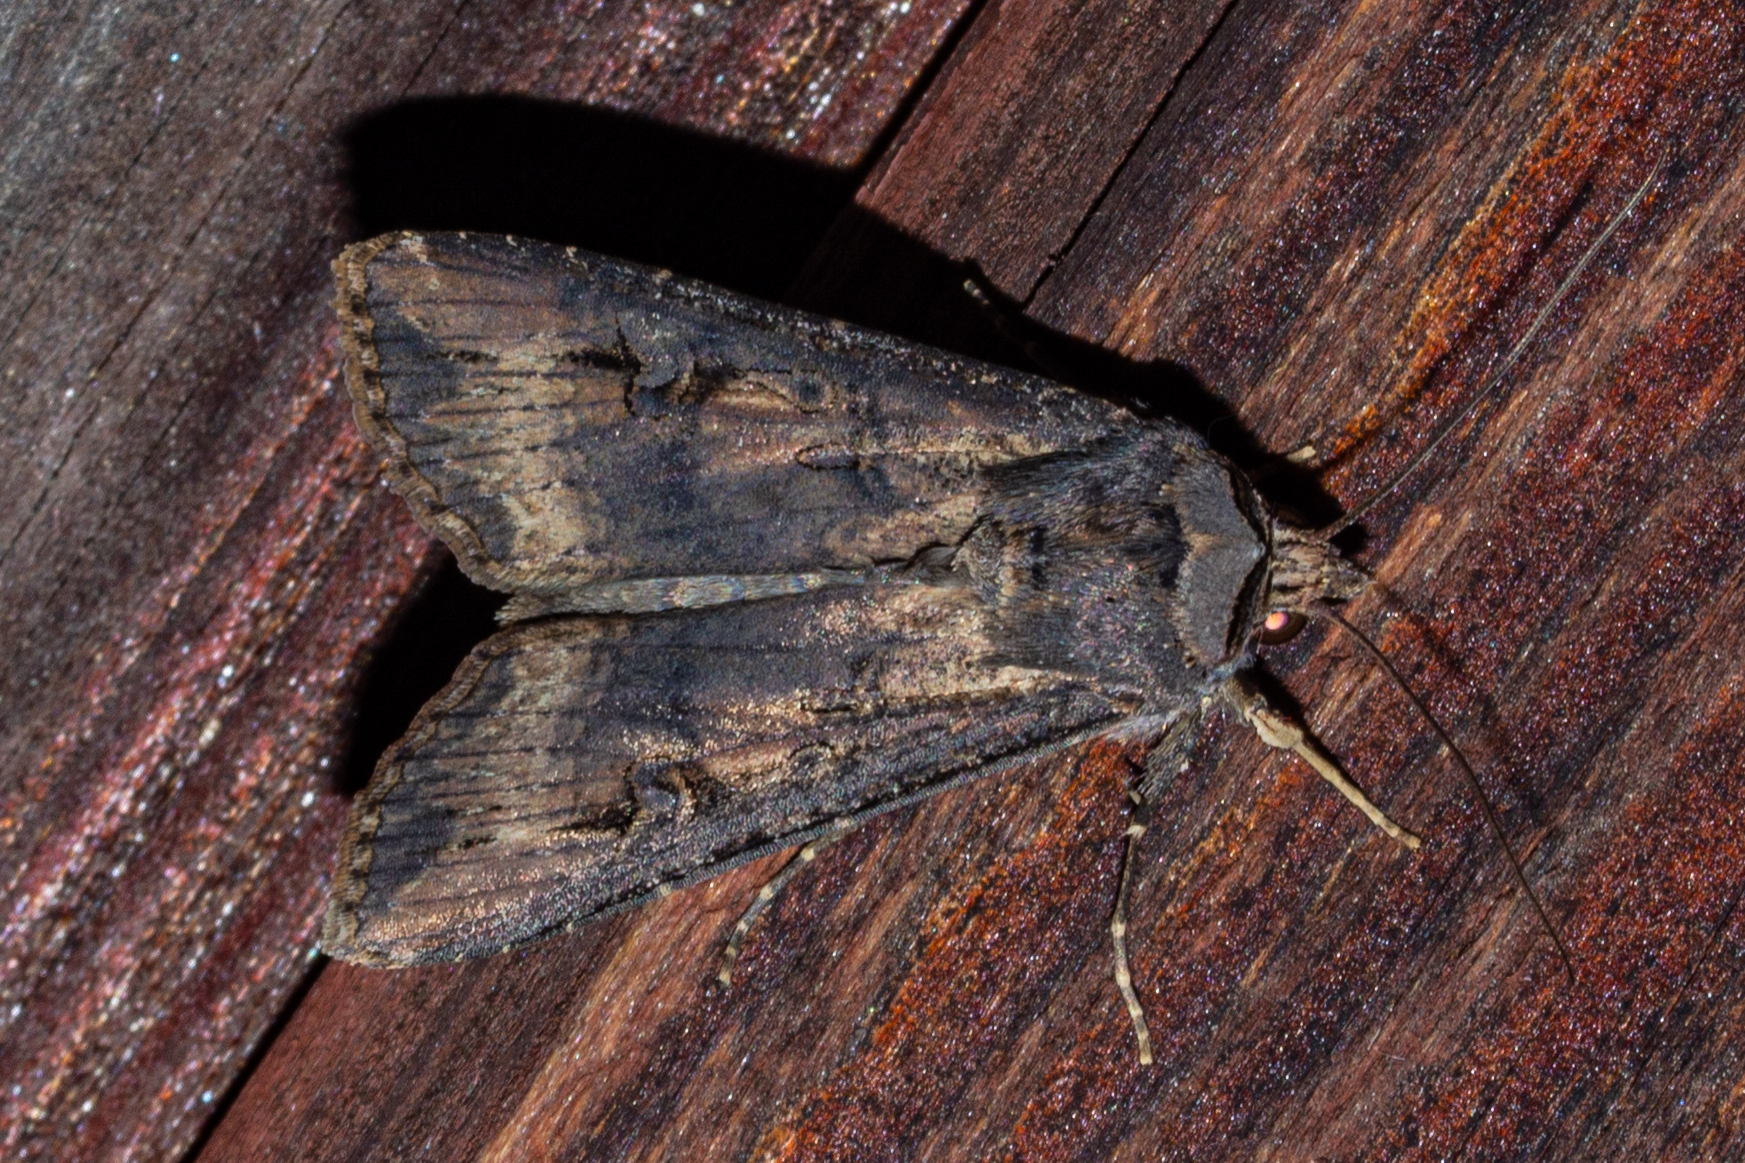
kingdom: Animalia
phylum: Arthropoda
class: Insecta
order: Lepidoptera
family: Noctuidae
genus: Agrotis
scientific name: Agrotis ipsilon
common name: Dark sword-grass
